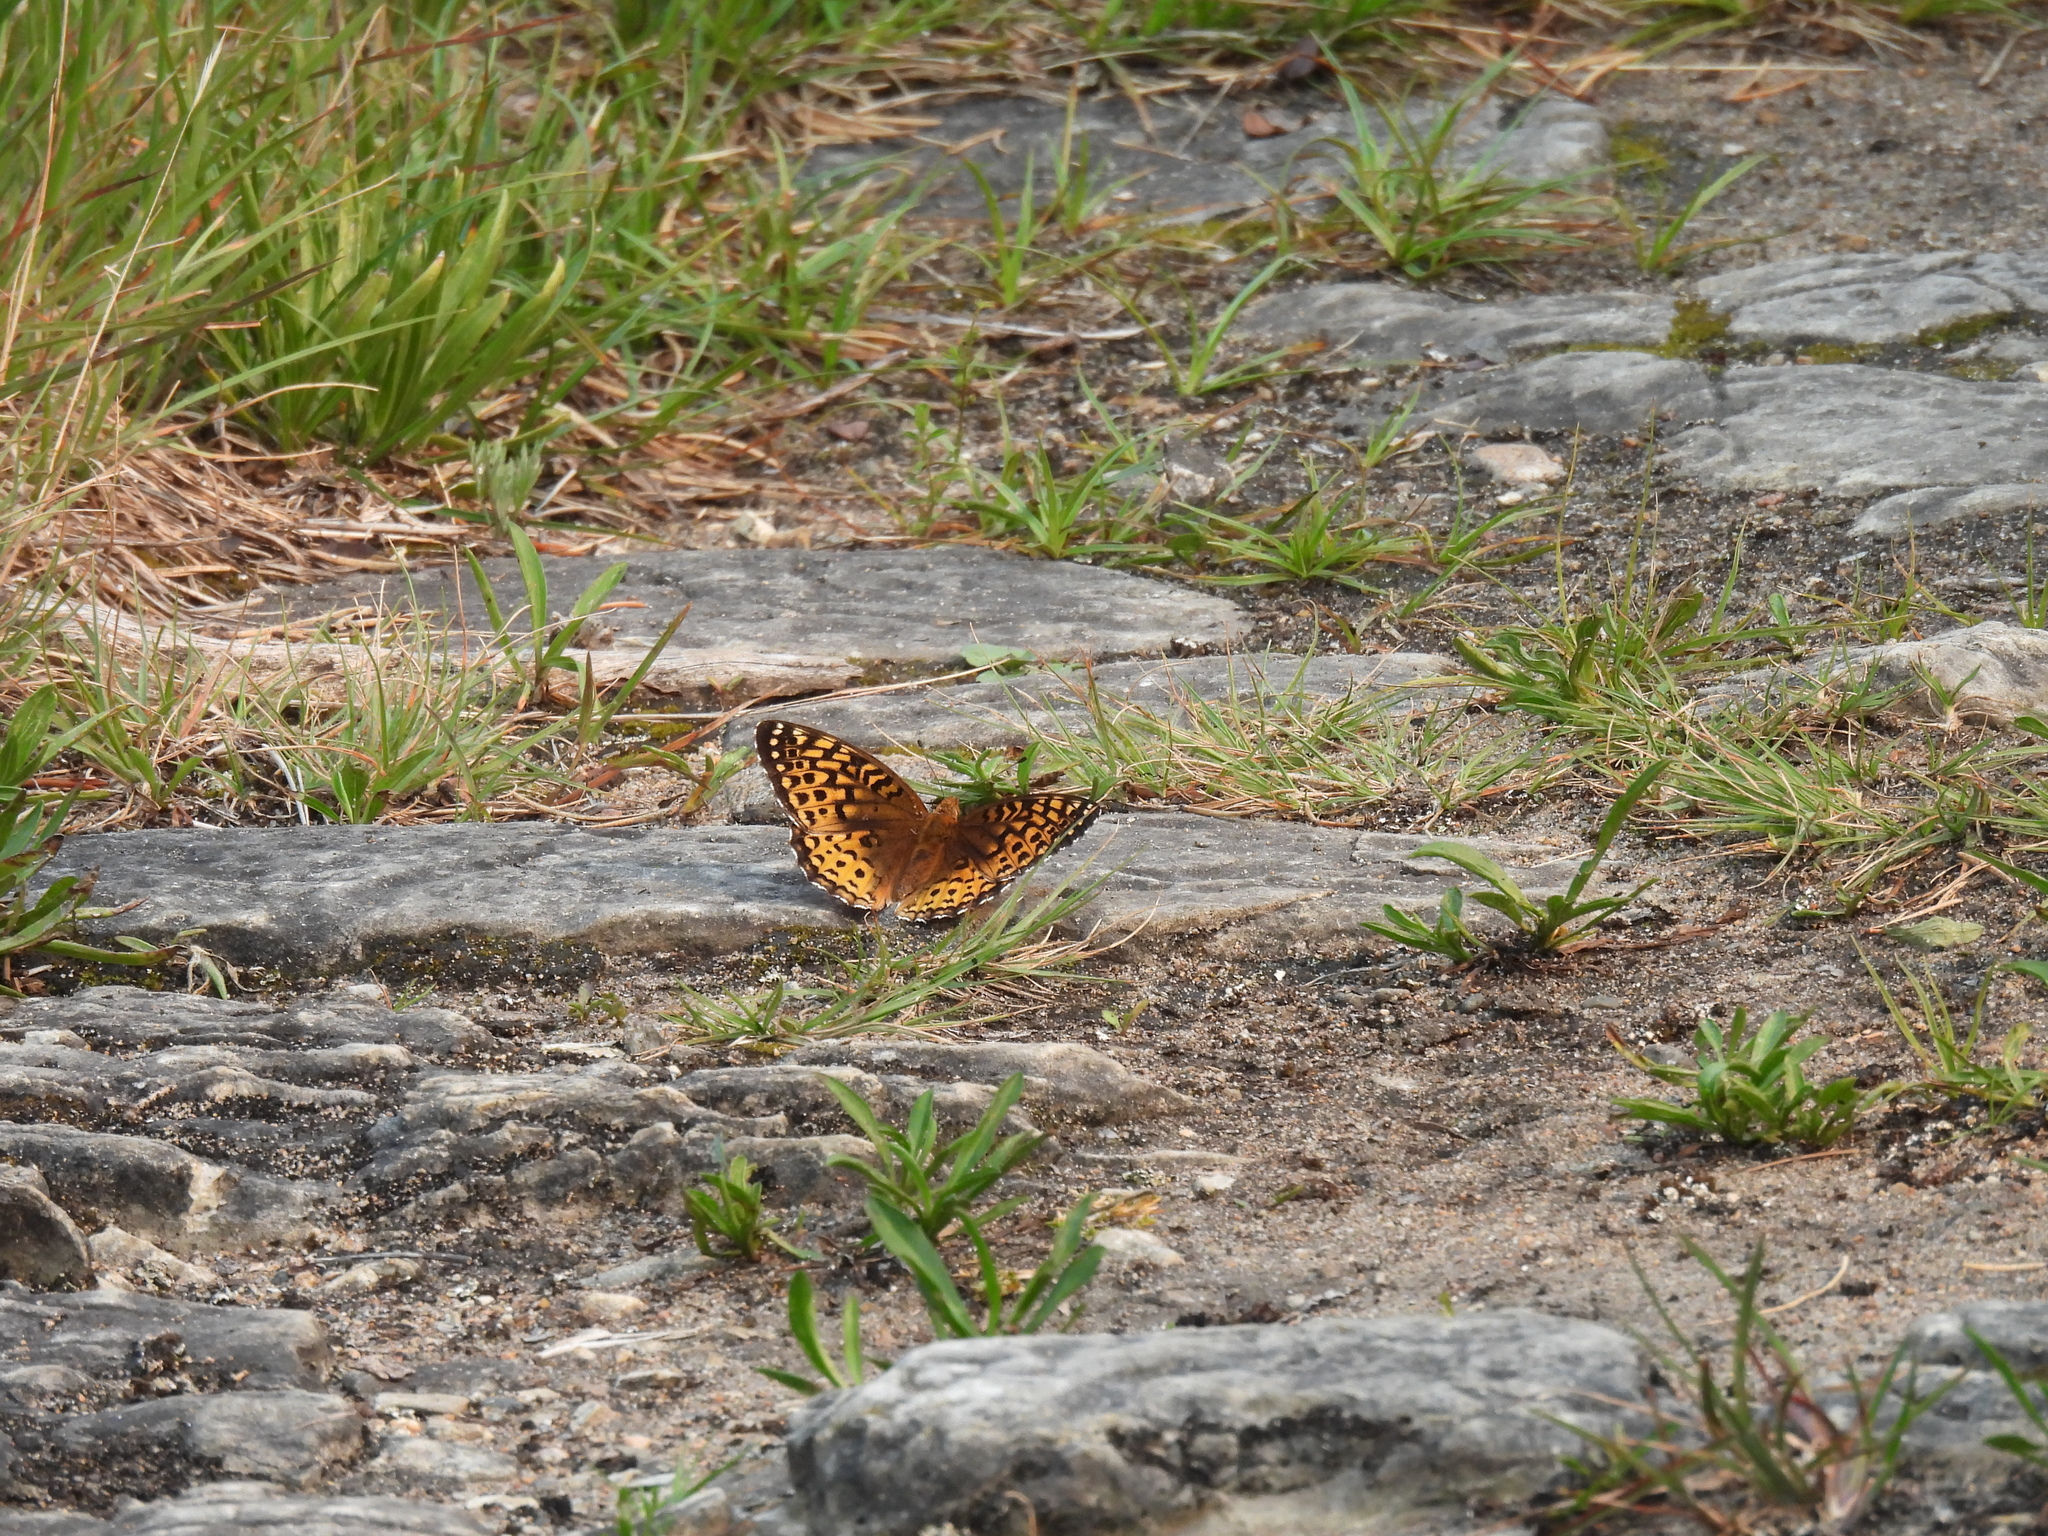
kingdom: Animalia
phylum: Arthropoda
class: Insecta
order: Lepidoptera
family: Nymphalidae
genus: Speyeria
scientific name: Speyeria cybele
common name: Great spangled fritillary
